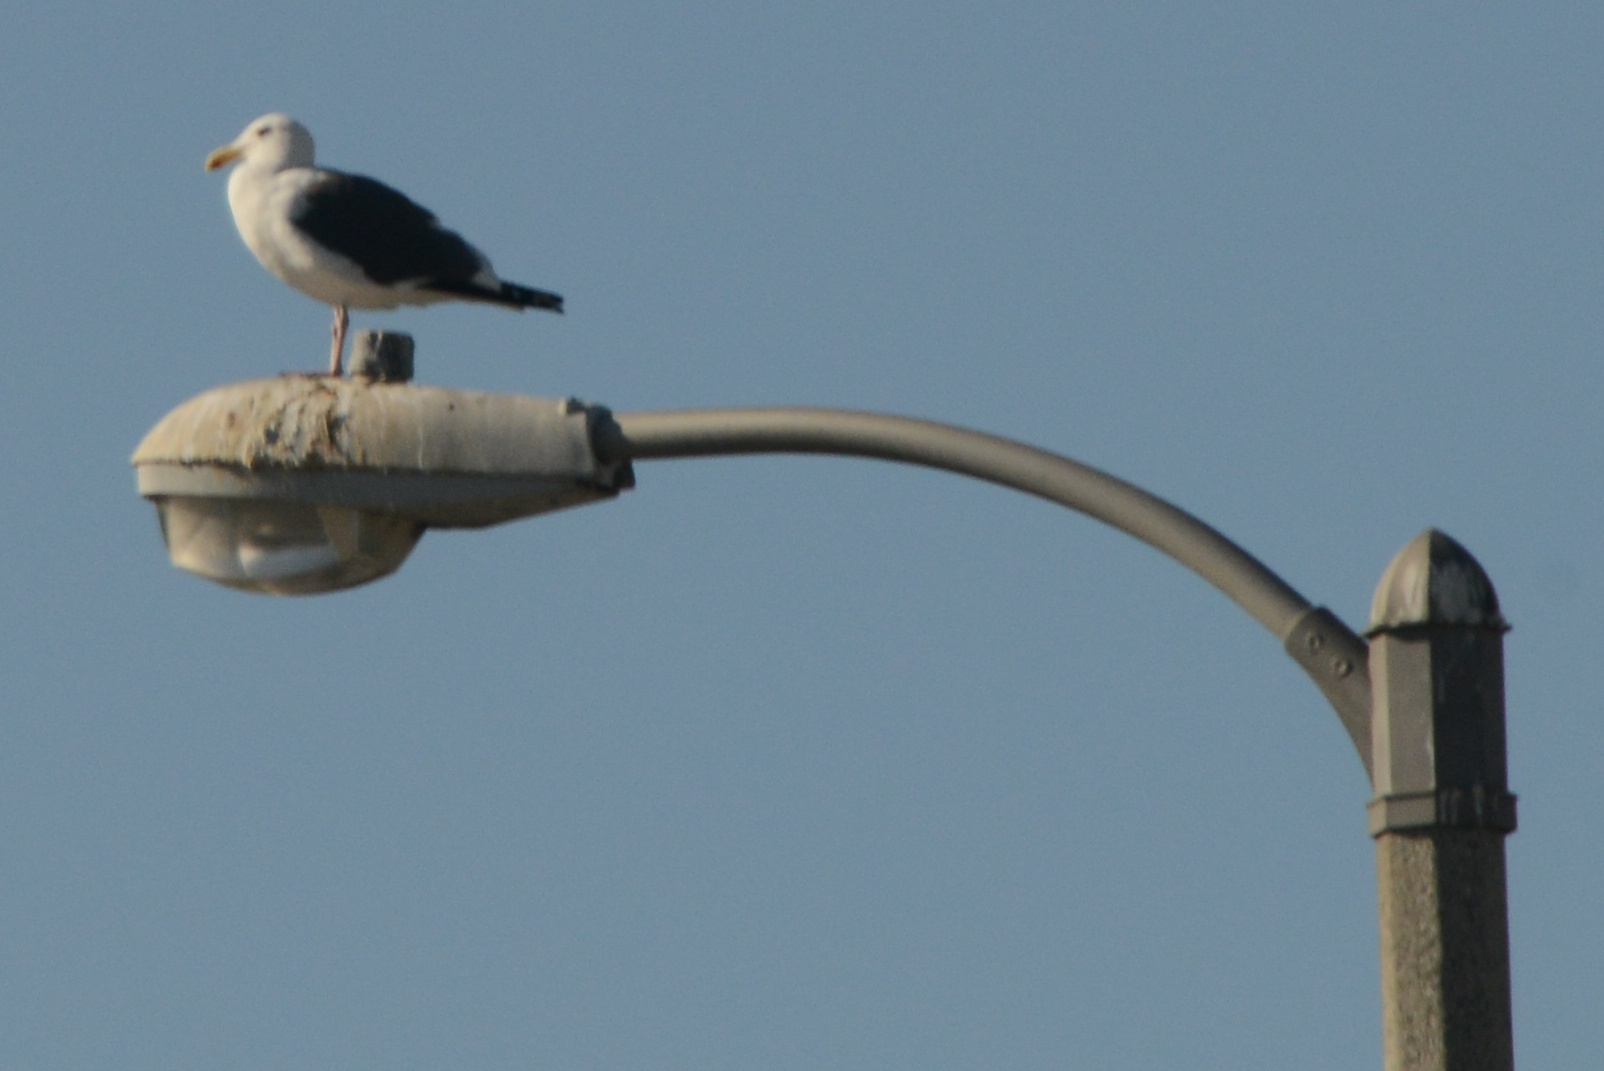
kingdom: Animalia
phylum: Chordata
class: Aves
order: Charadriiformes
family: Laridae
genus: Larus
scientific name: Larus occidentalis
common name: Western gull
